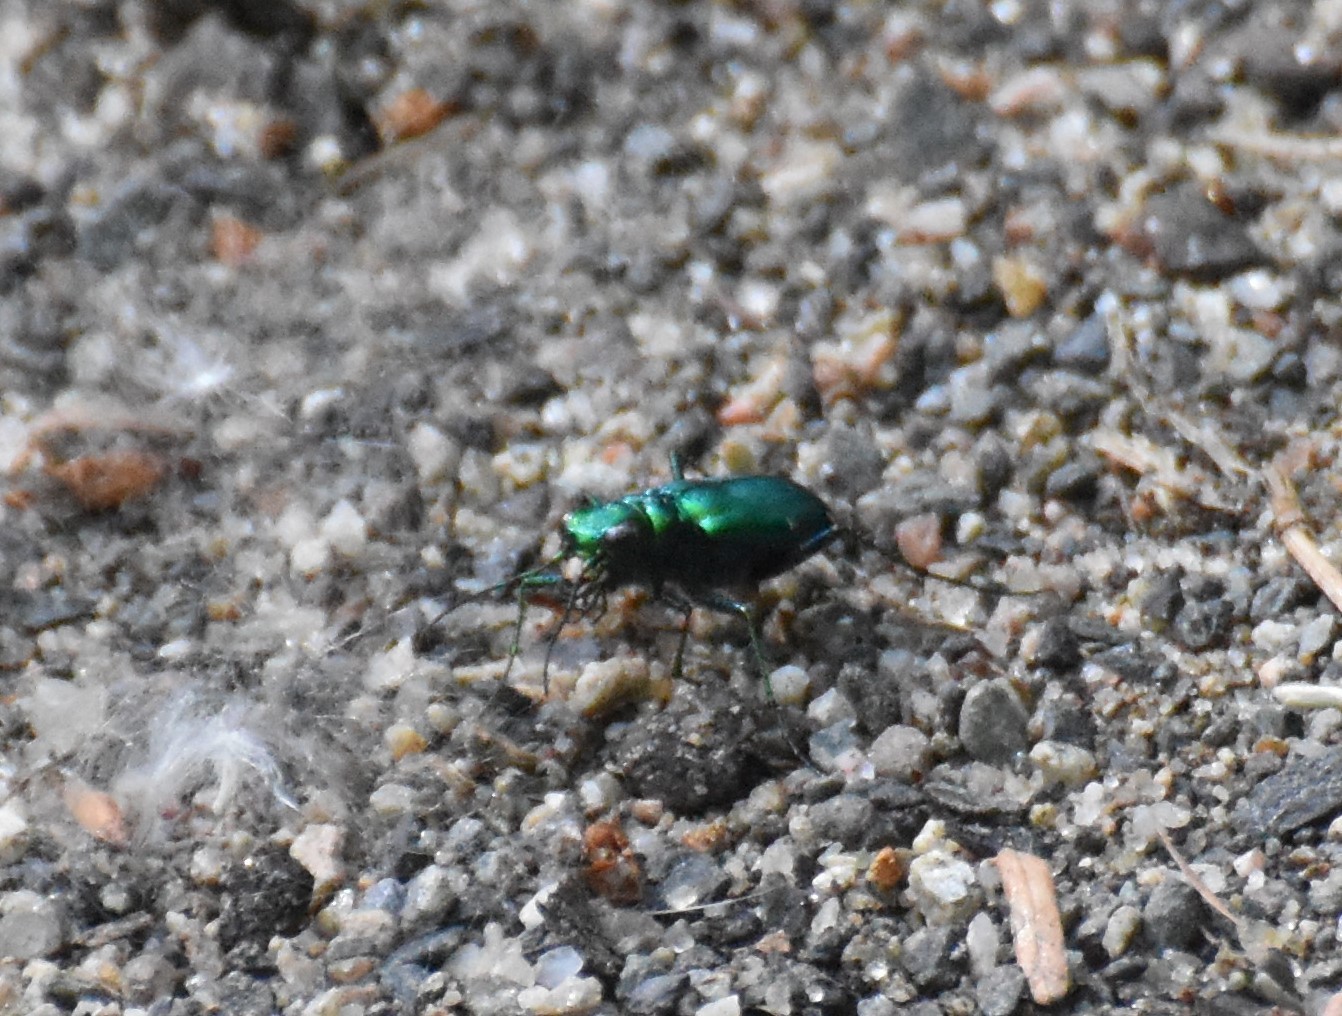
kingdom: Animalia
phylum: Arthropoda
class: Insecta
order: Coleoptera
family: Carabidae
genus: Cicindela
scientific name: Cicindela sexguttata
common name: Six-spotted tiger beetle
